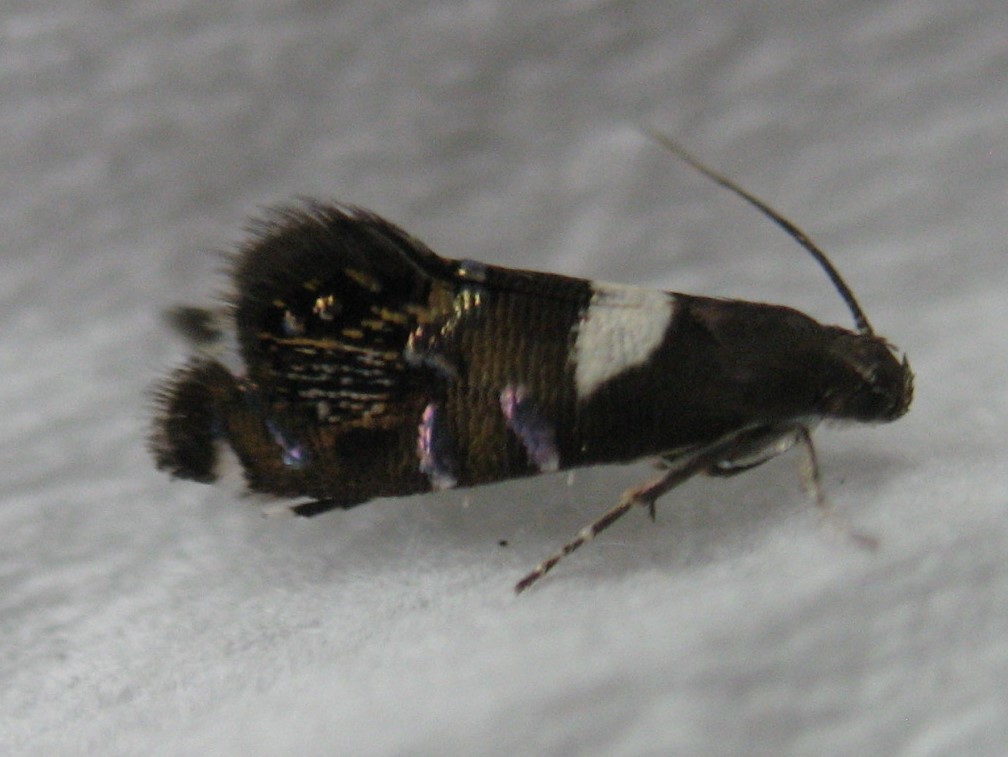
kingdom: Animalia
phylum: Arthropoda
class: Insecta
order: Lepidoptera
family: Glyphipterigidae
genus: Glyphipterix
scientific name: Glyphipterix circumscriptella
